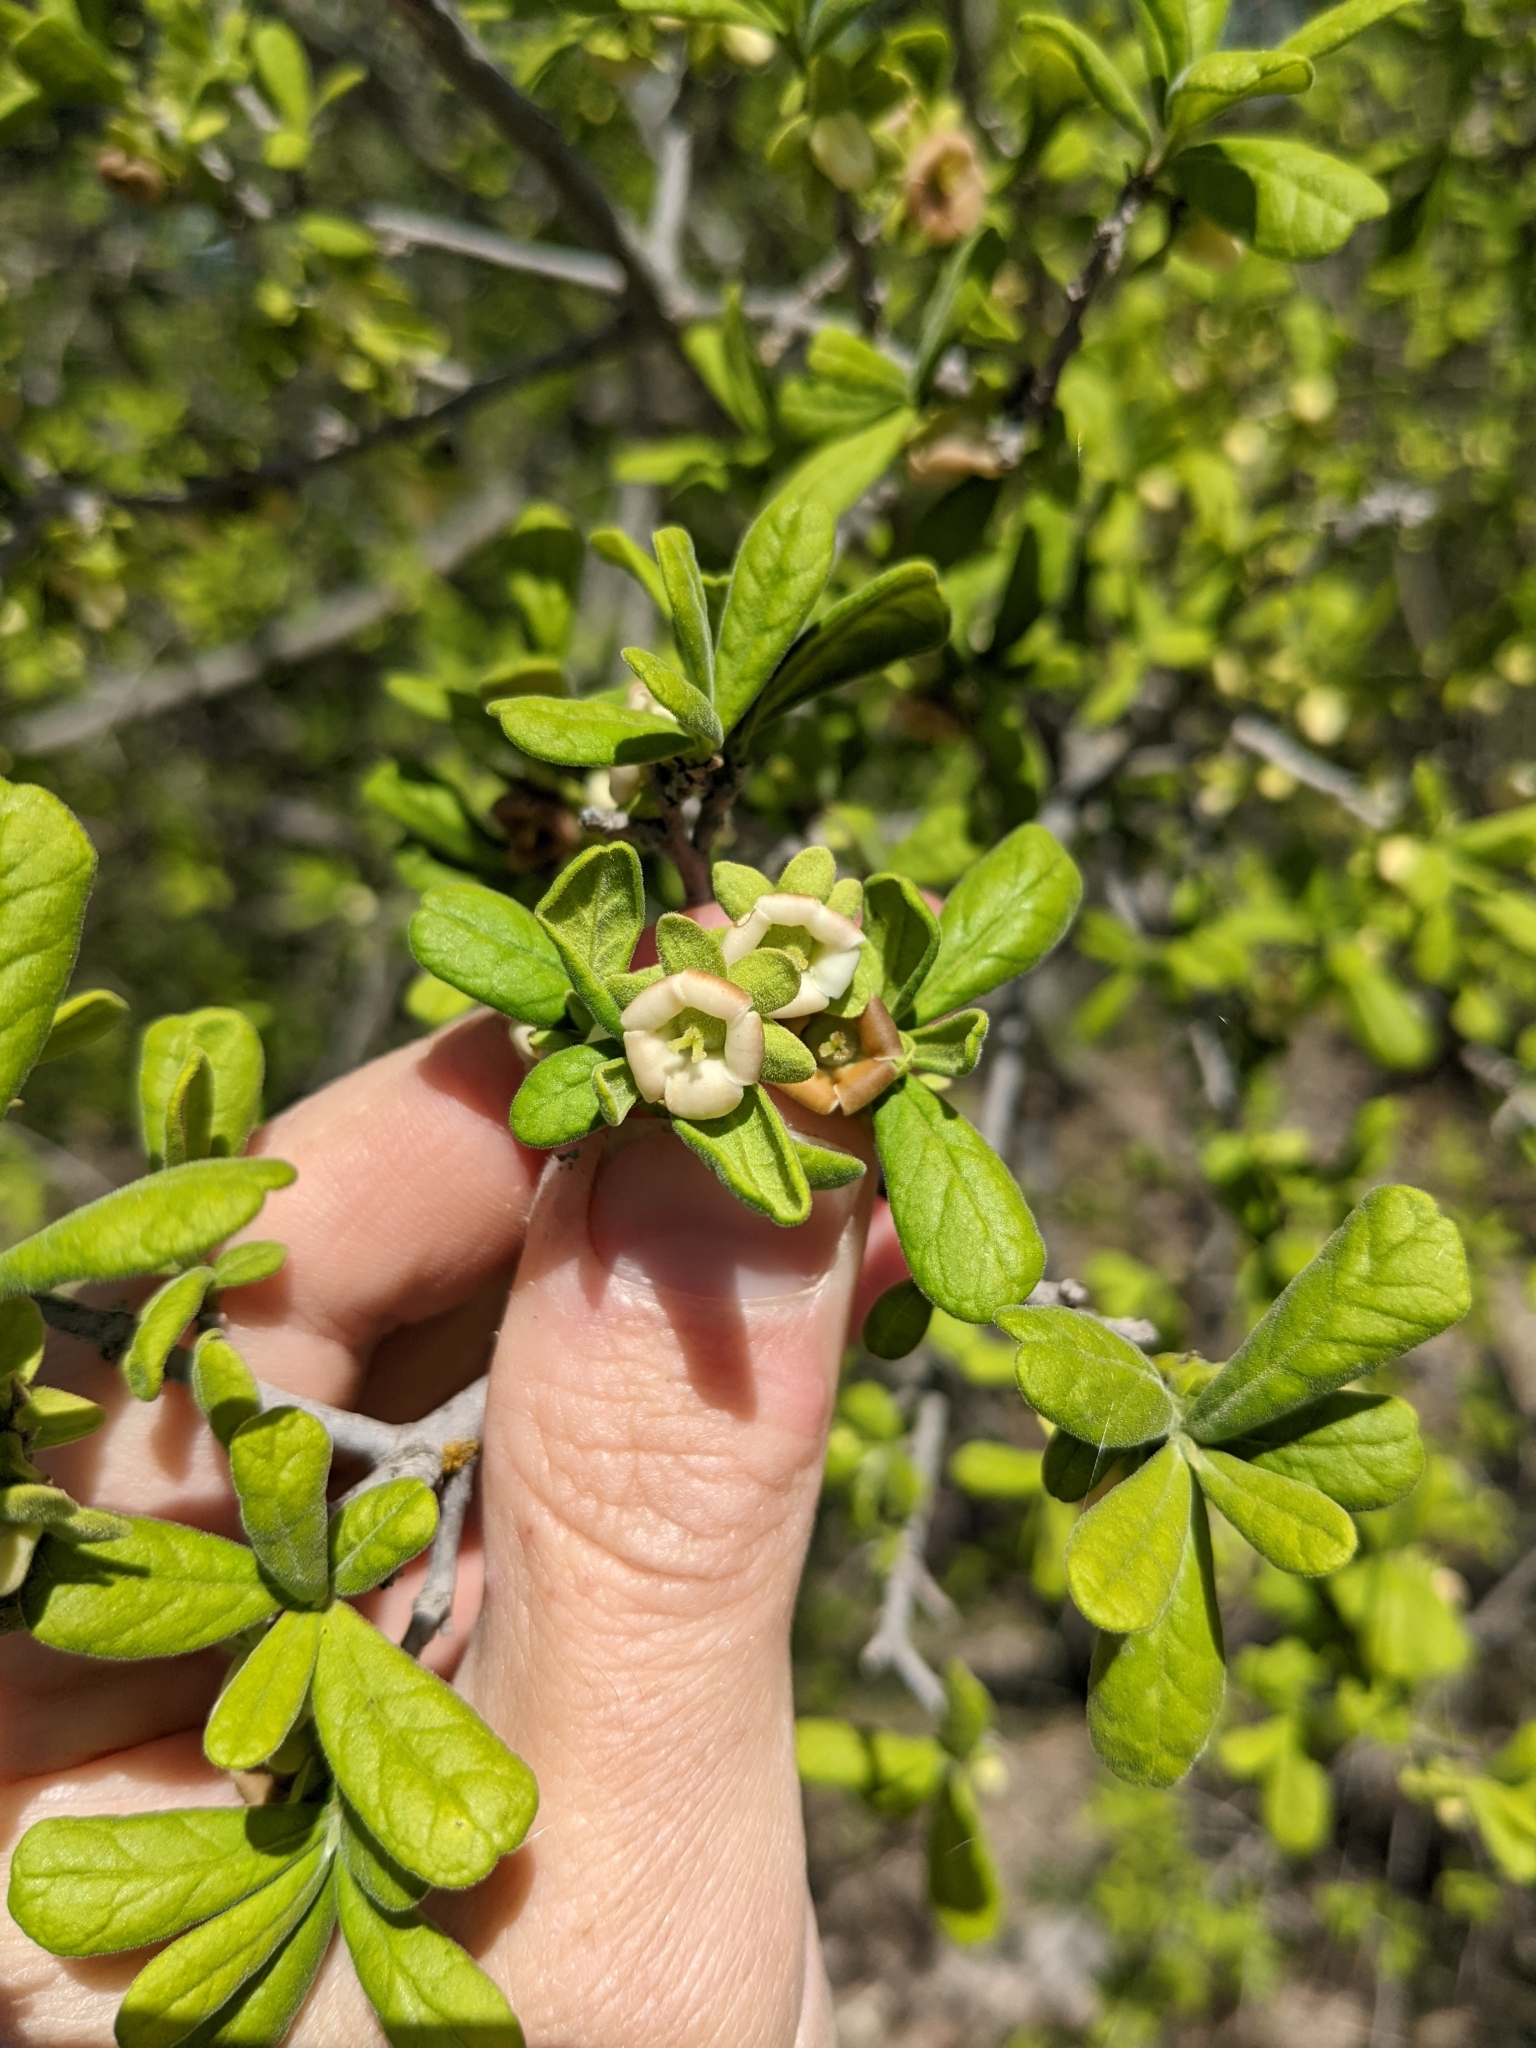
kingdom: Plantae
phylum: Tracheophyta
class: Magnoliopsida
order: Ericales
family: Ebenaceae
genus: Diospyros
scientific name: Diospyros texana
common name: Texas persimmon
